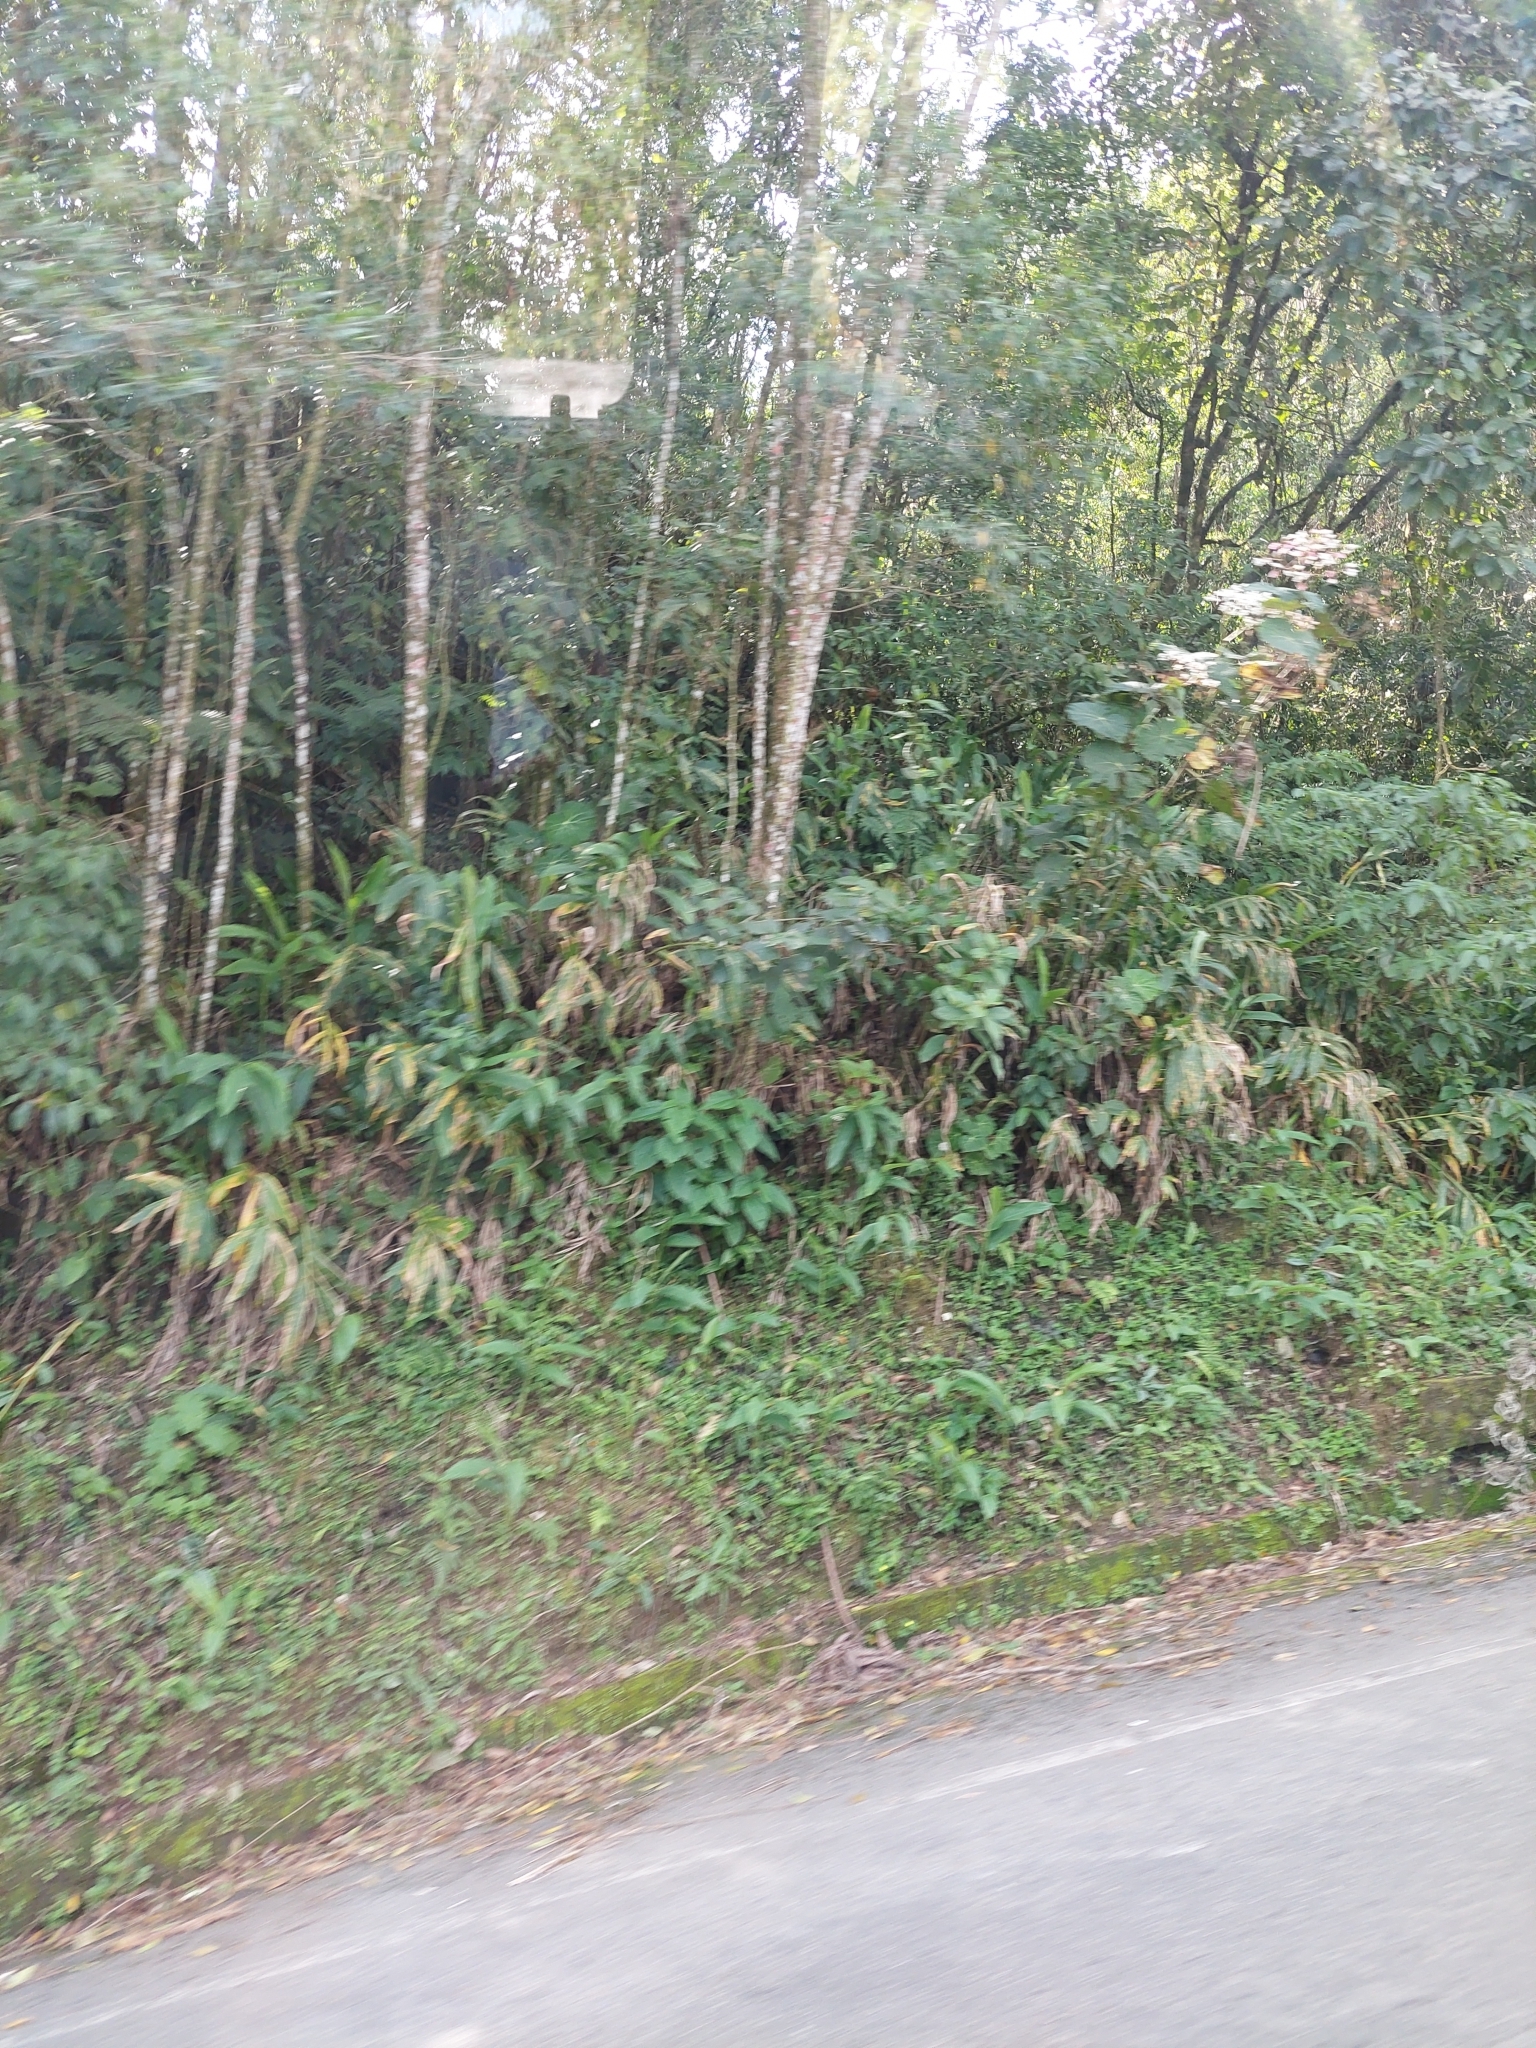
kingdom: Plantae
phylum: Tracheophyta
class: Liliopsida
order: Zingiberales
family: Zingiberaceae
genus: Hedychium
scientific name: Hedychium coronarium
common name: White garland-lily
